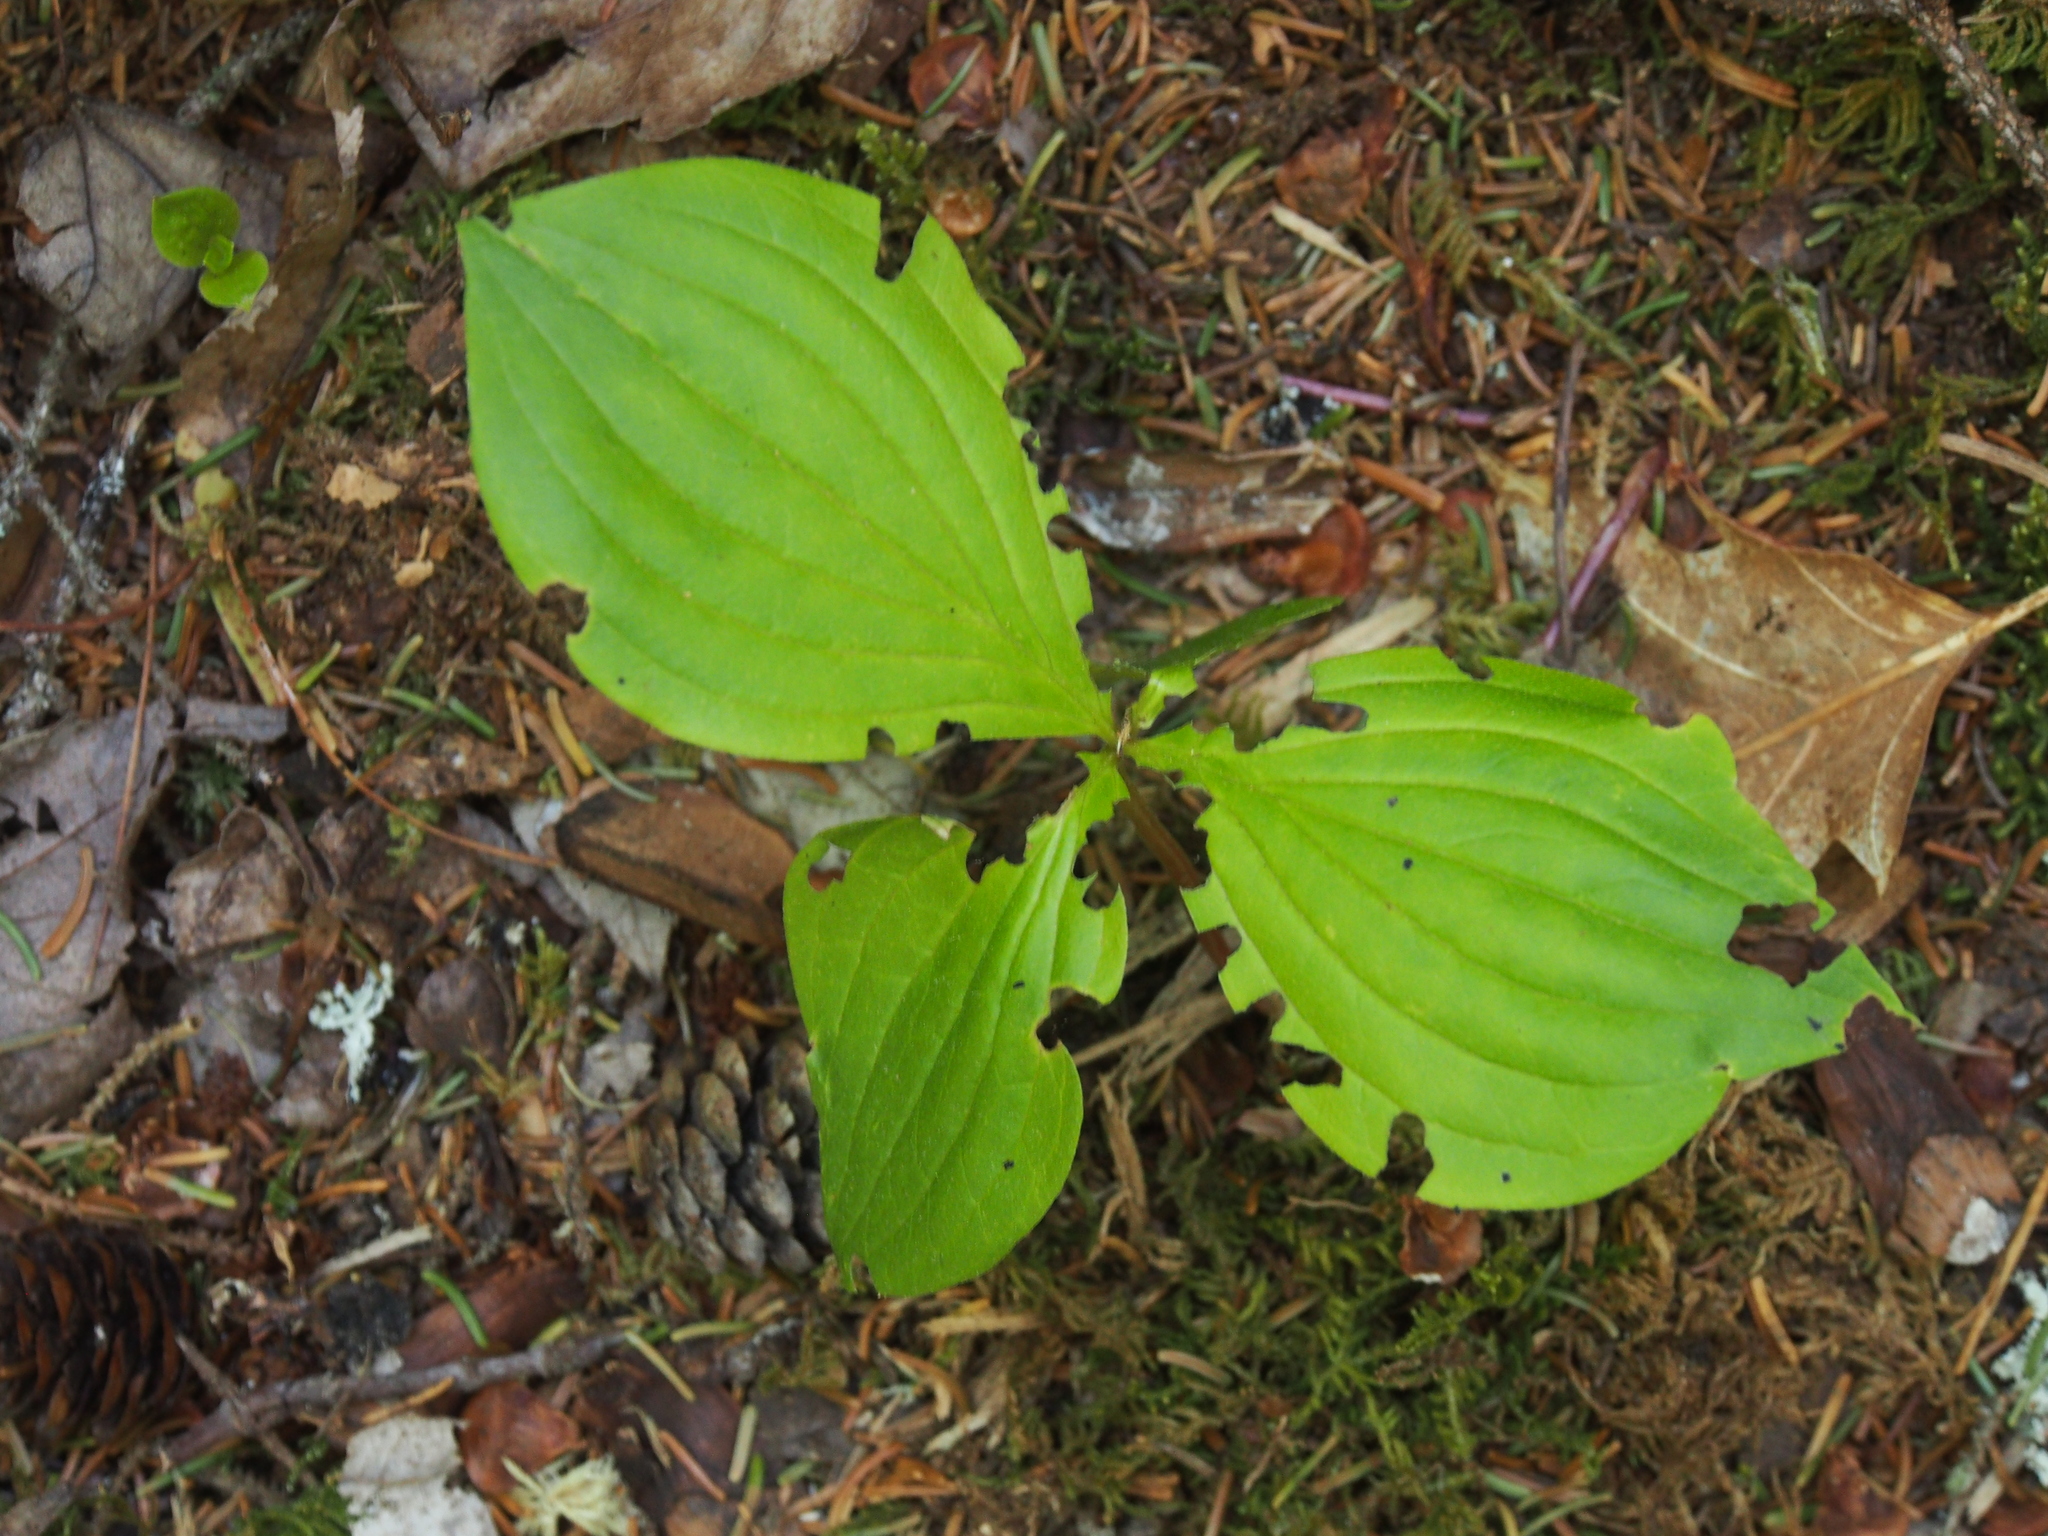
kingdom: Plantae
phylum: Tracheophyta
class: Magnoliopsida
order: Cornales
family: Cornaceae
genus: Cornus
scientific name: Cornus canadensis
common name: Creeping dogwood
